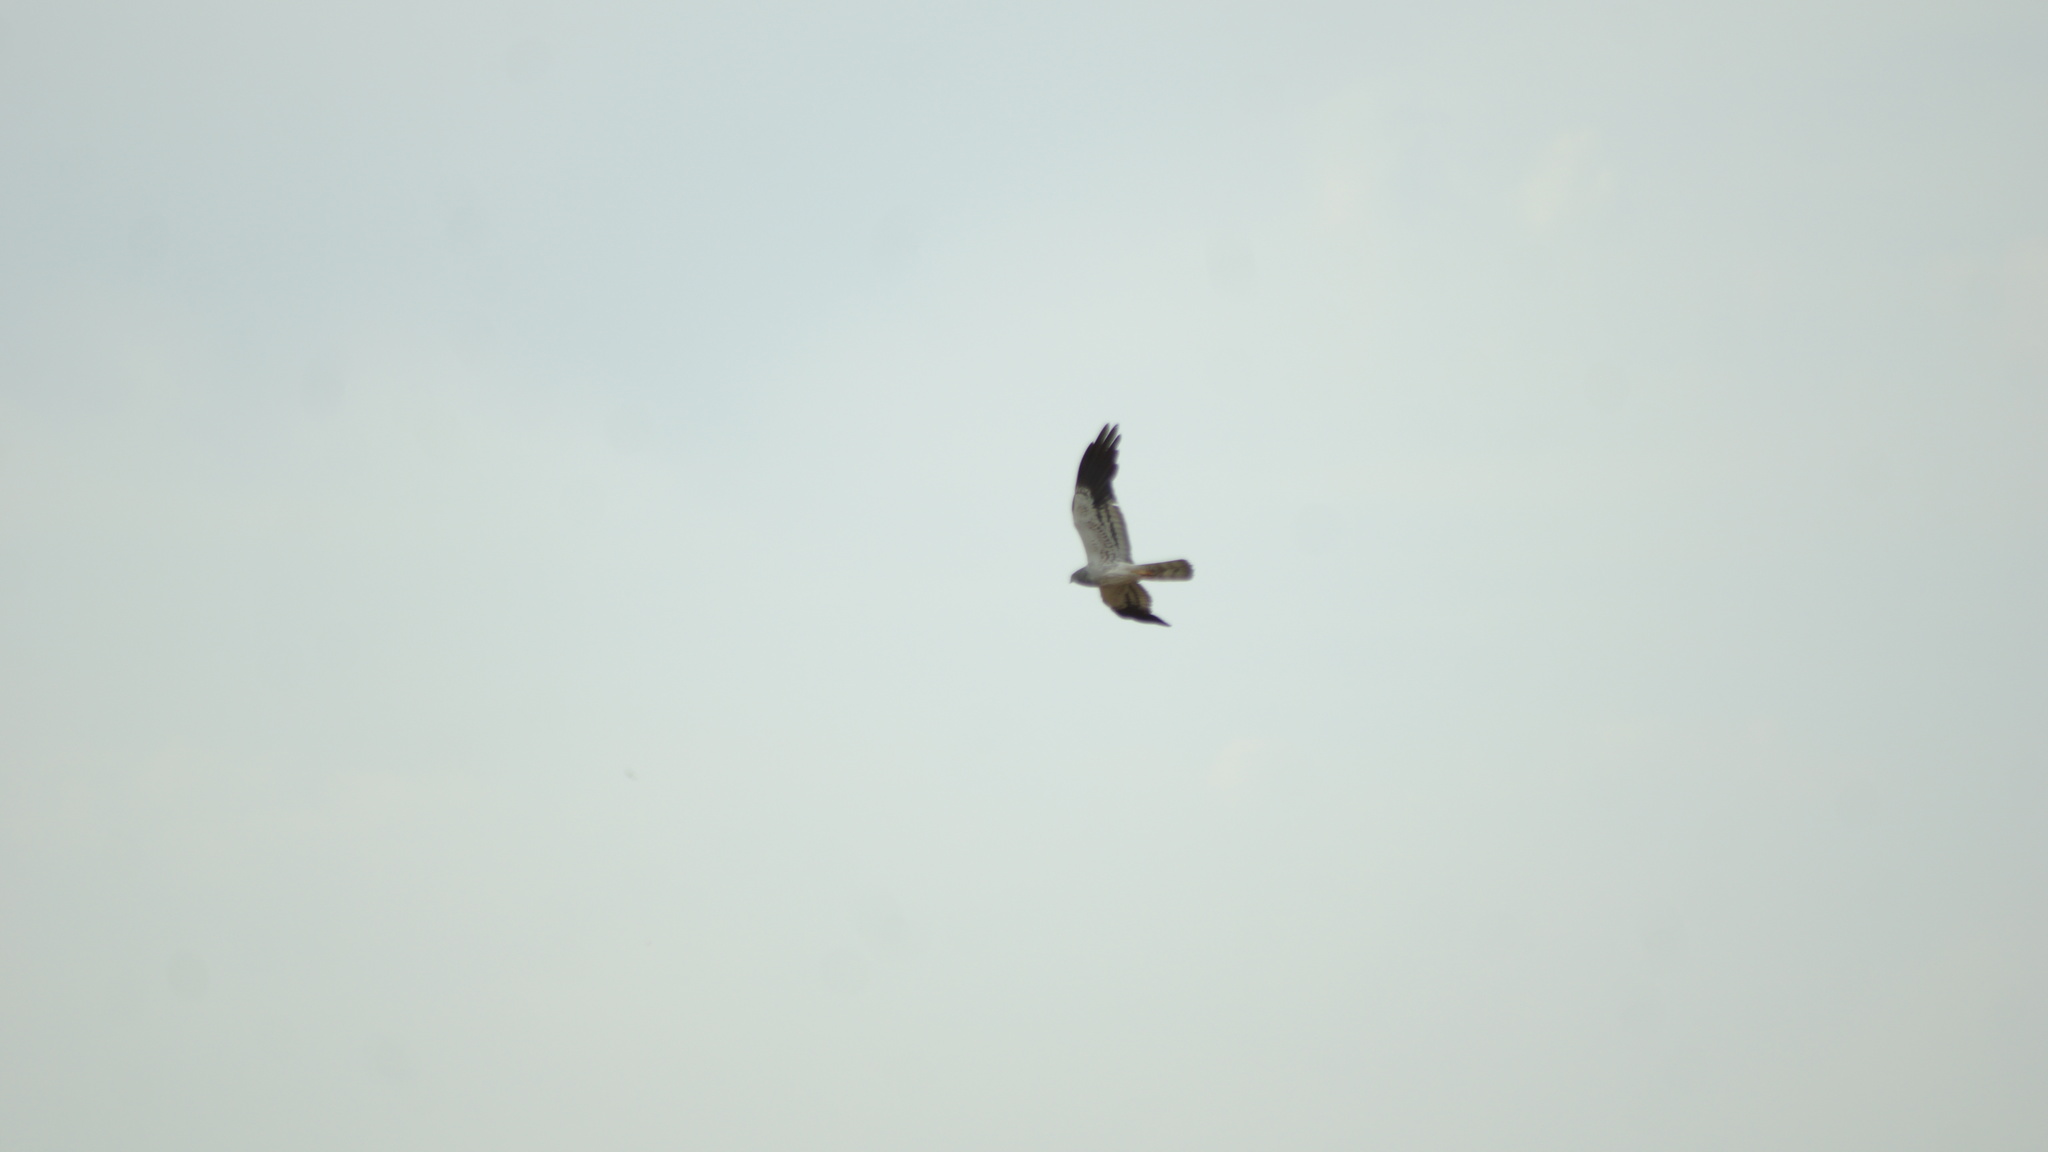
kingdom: Animalia
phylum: Chordata
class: Aves
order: Accipitriformes
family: Accipitridae
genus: Circus
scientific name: Circus pygargus
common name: Montagu's harrier
